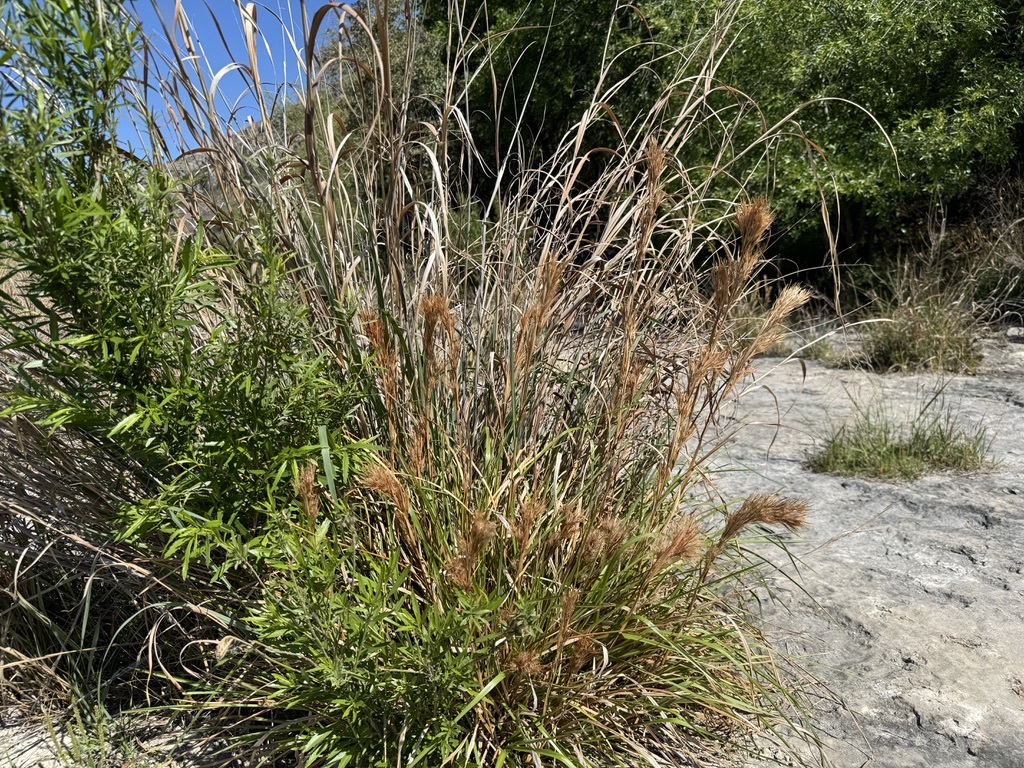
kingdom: Plantae
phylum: Tracheophyta
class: Liliopsida
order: Poales
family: Poaceae
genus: Andropogon
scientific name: Andropogon tenuispatheus
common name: Bushy bluestem
